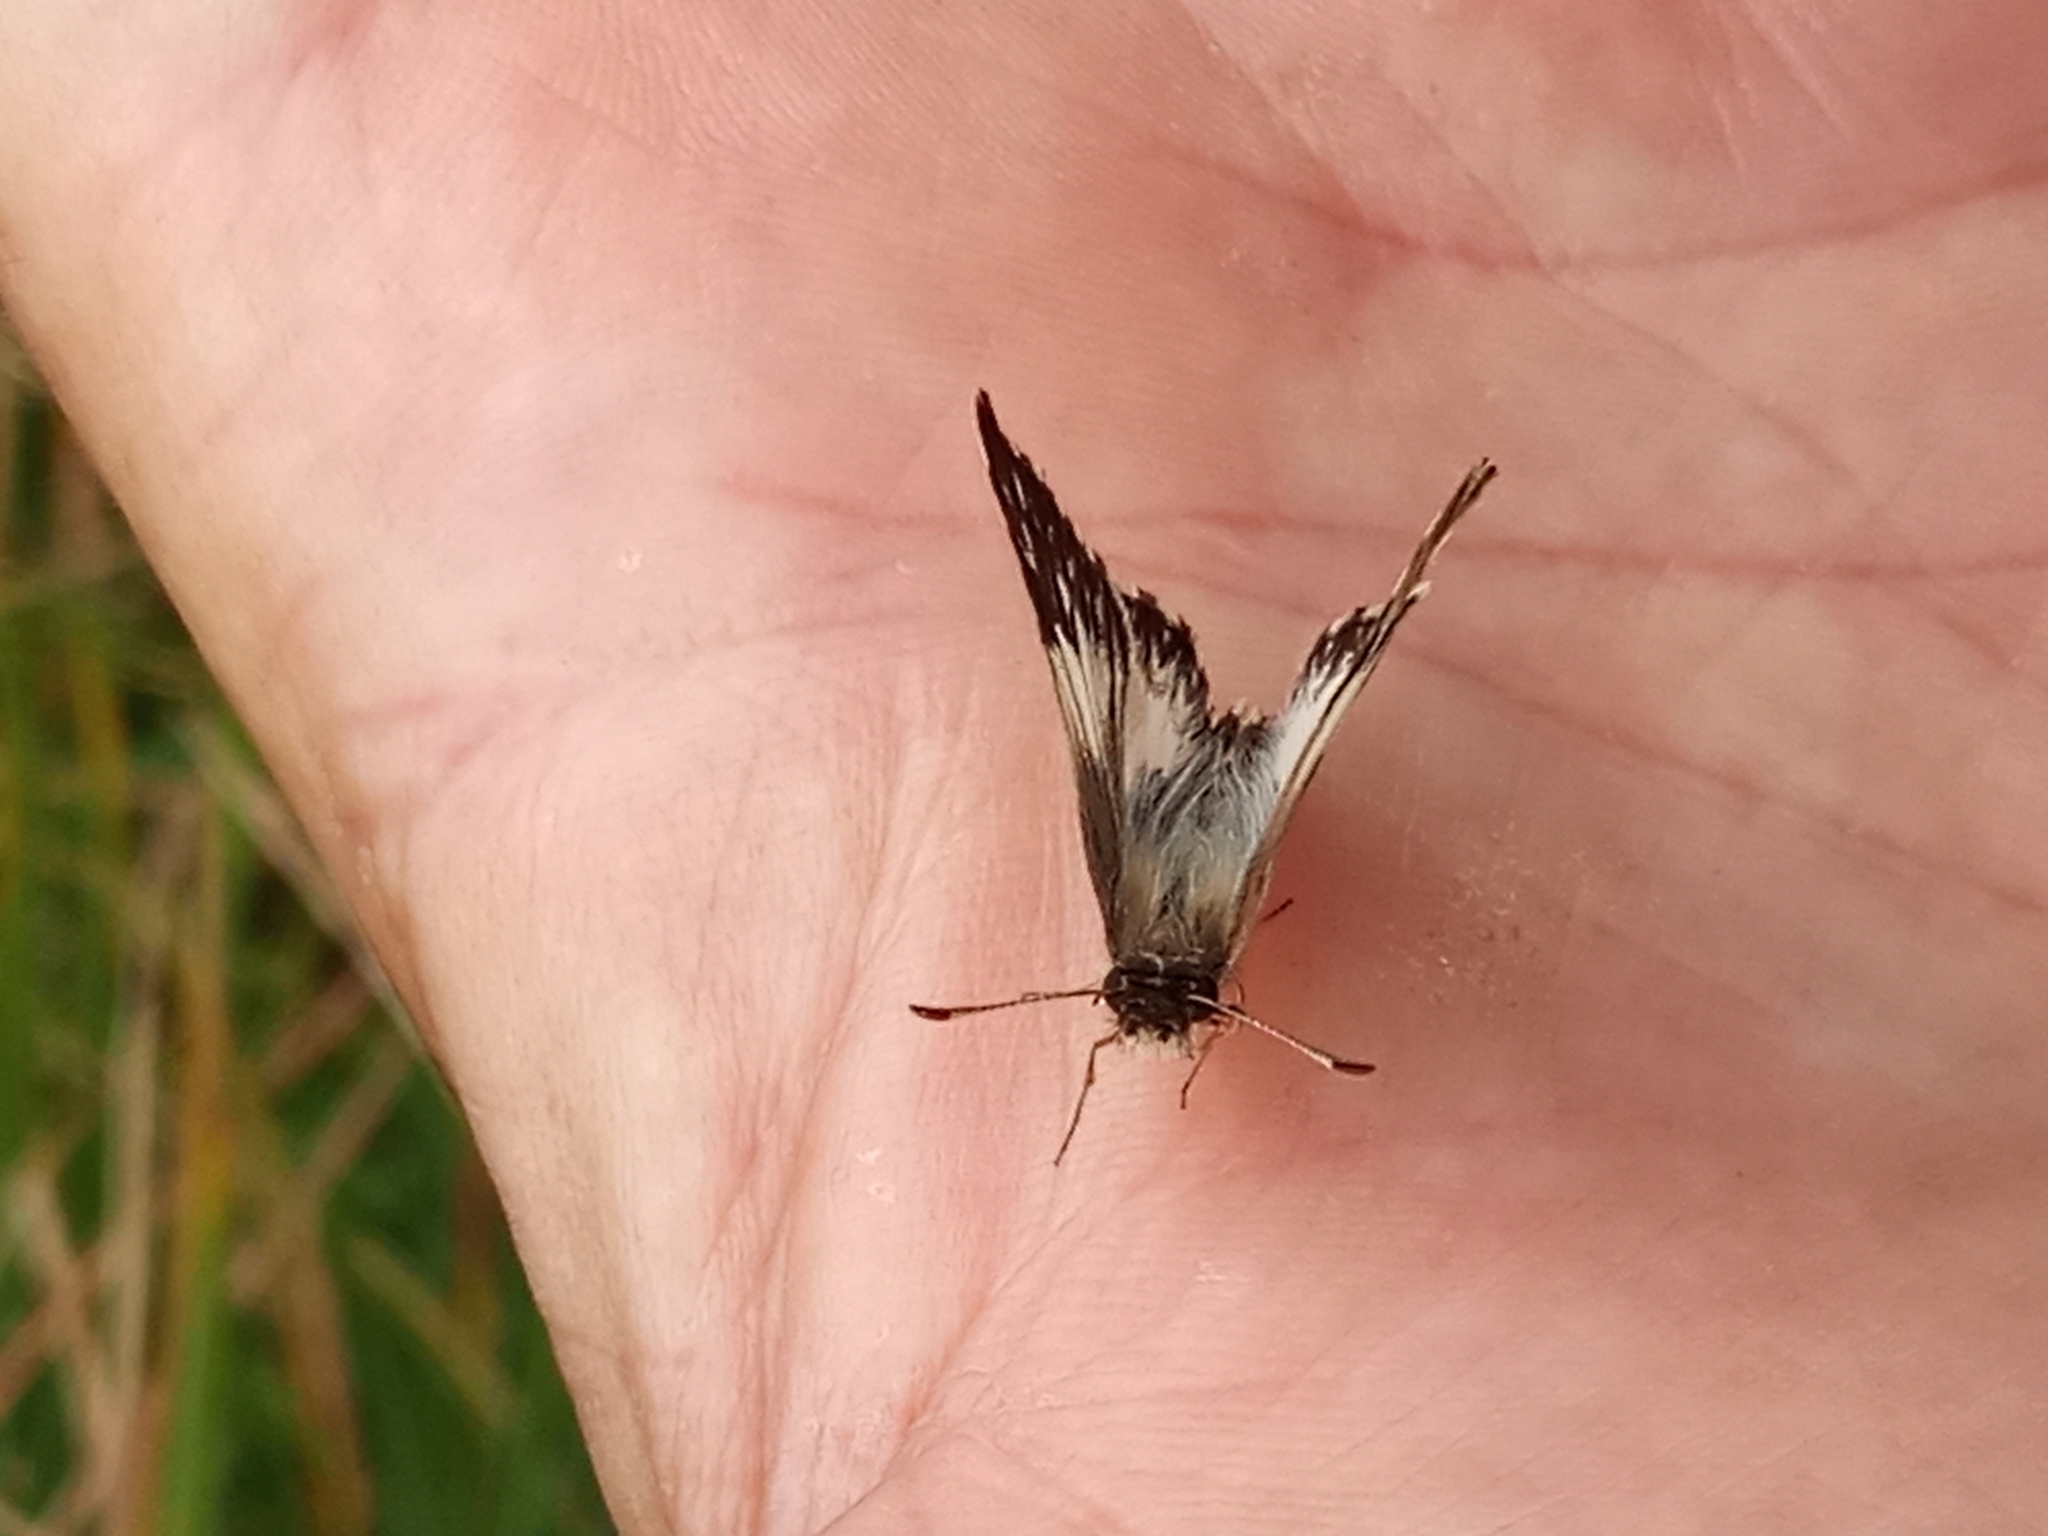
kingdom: Animalia
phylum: Arthropoda
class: Insecta
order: Lepidoptera
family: Hesperiidae
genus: Heliopetes
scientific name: Heliopetes omrina
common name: Stained white-skipper
